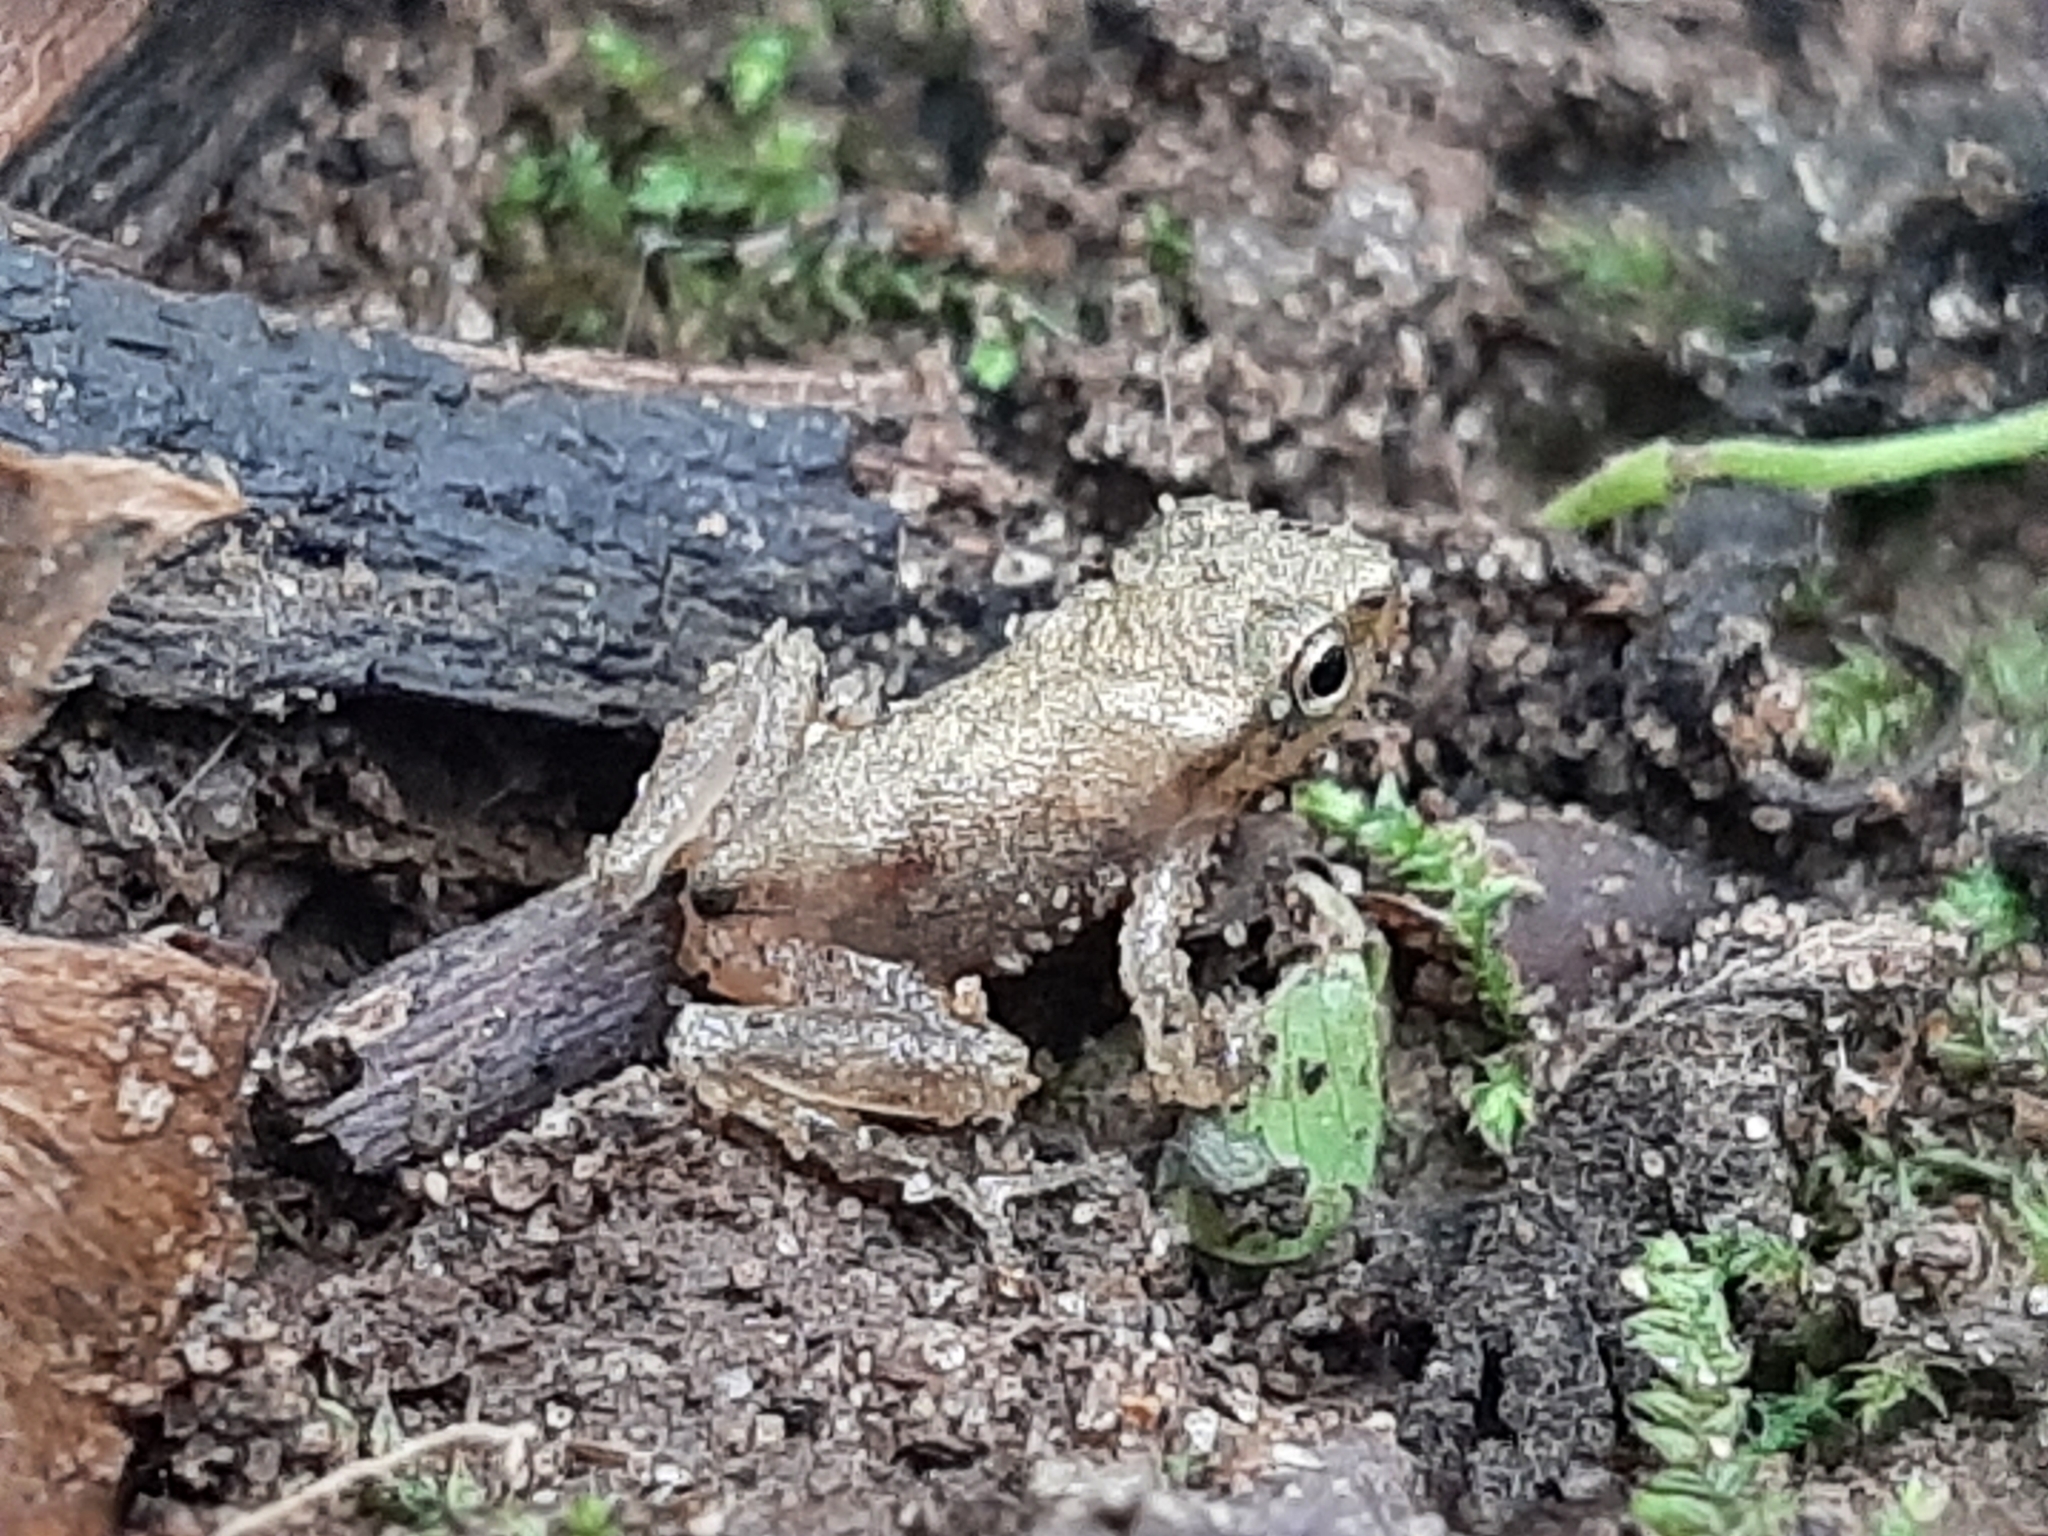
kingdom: Animalia
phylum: Chordata
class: Amphibia
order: Anura
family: Hylidae
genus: Pseudacris
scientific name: Pseudacris crucifer
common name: Spring peeper
